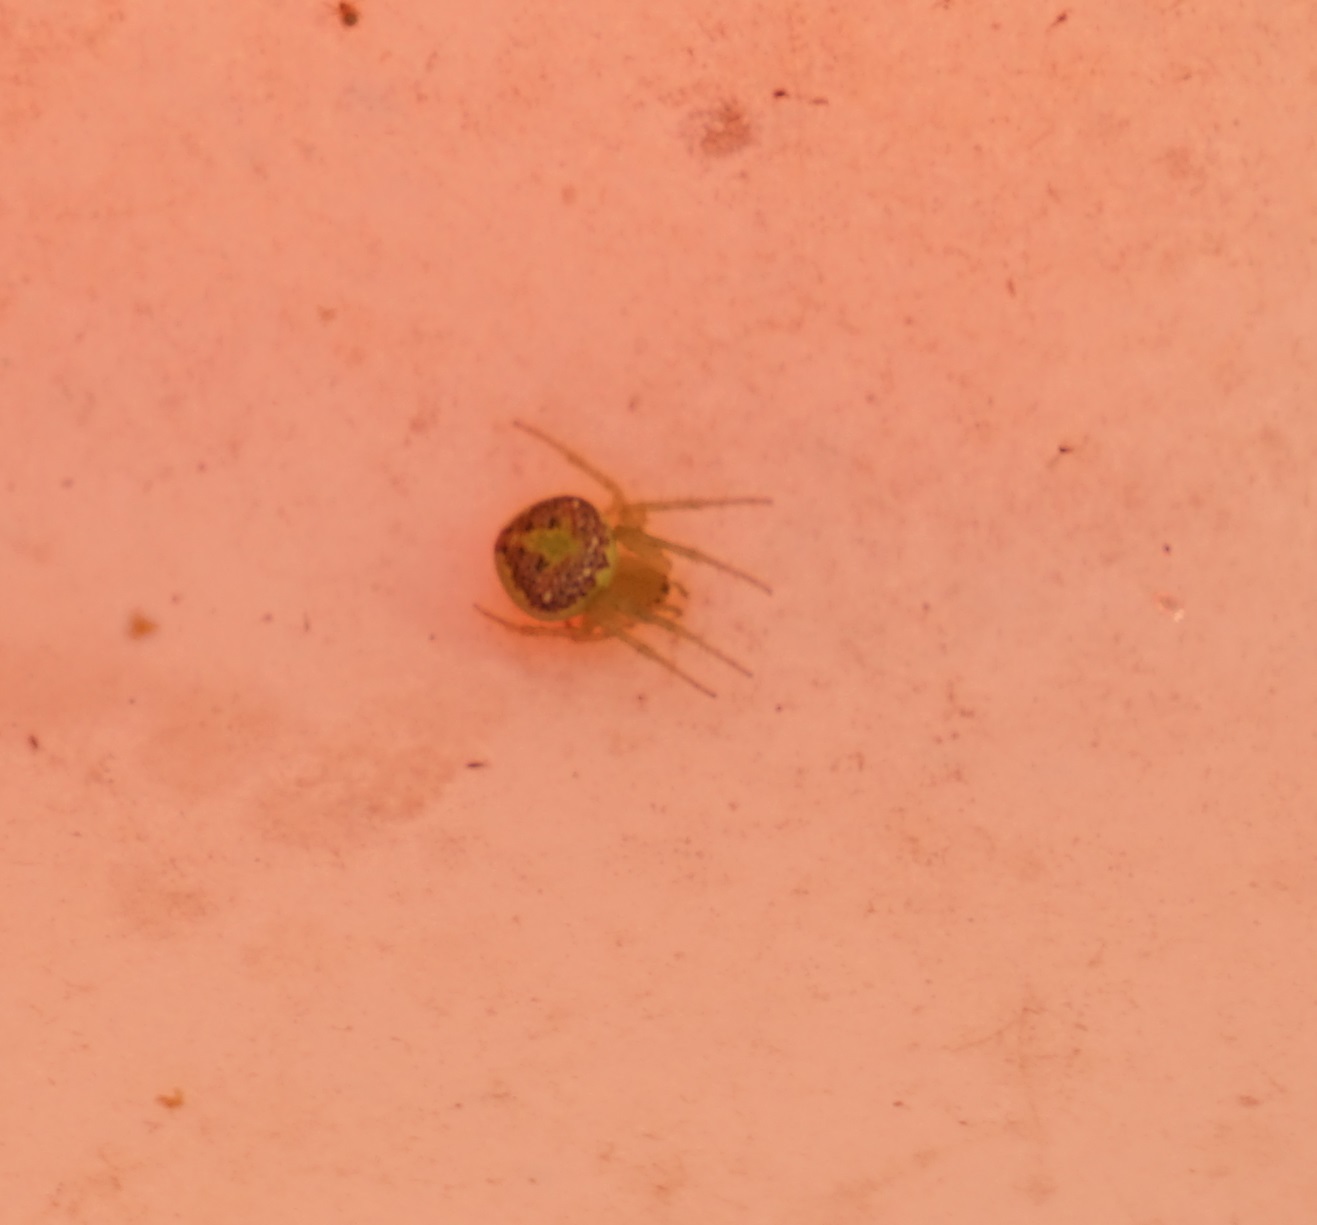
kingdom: Animalia
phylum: Arthropoda
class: Arachnida
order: Araneae
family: Araneidae
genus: Araneus
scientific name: Araneus circulissparsus
